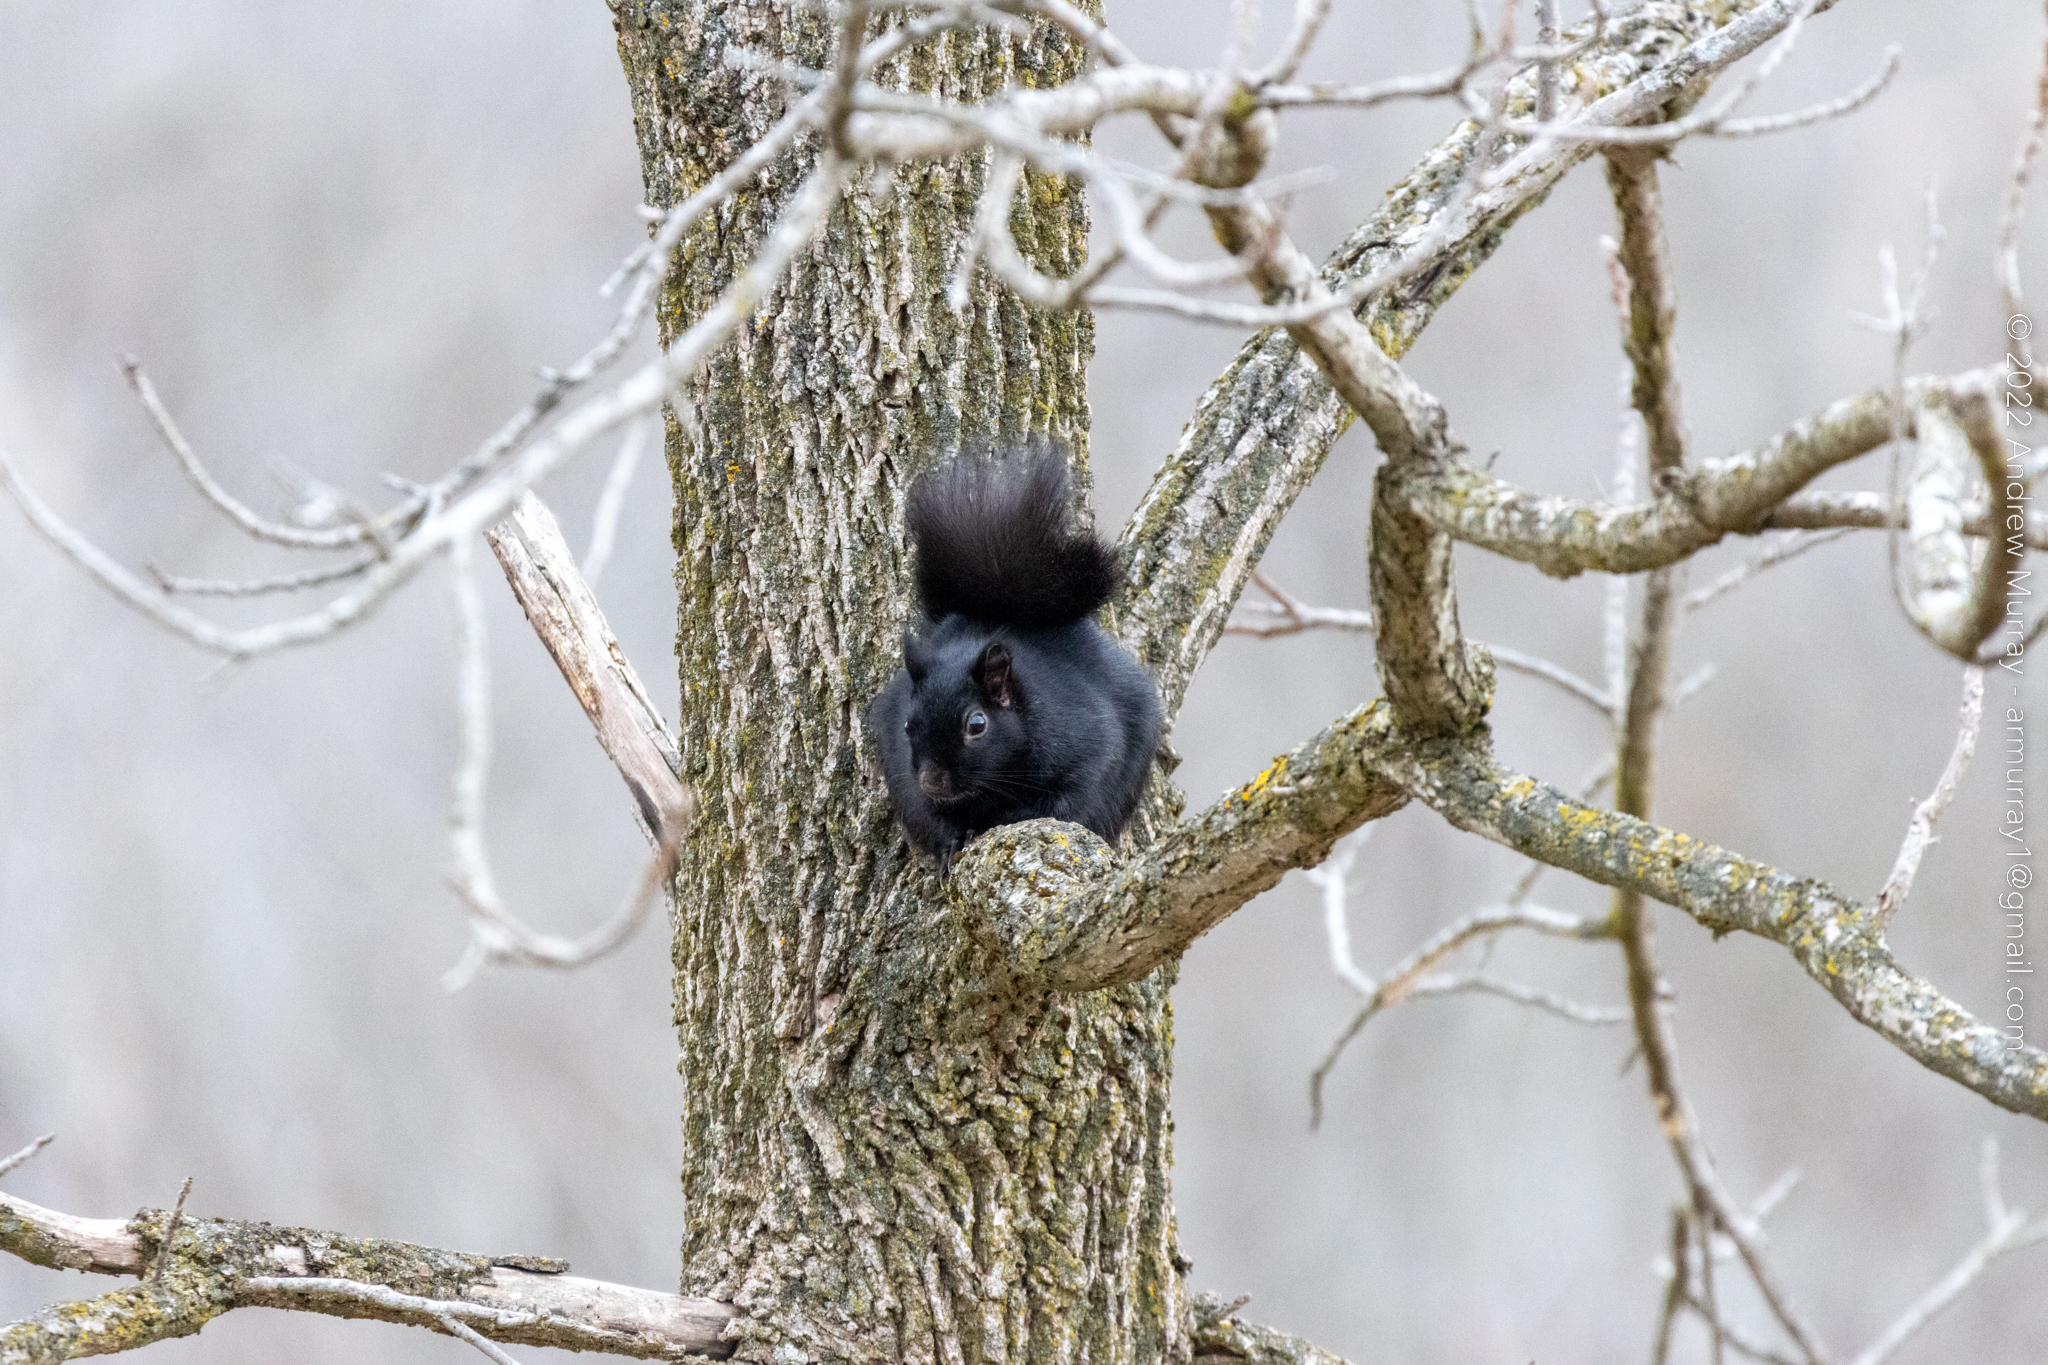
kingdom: Animalia
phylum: Chordata
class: Mammalia
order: Rodentia
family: Sciuridae
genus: Sciurus
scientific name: Sciurus carolinensis
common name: Eastern gray squirrel
